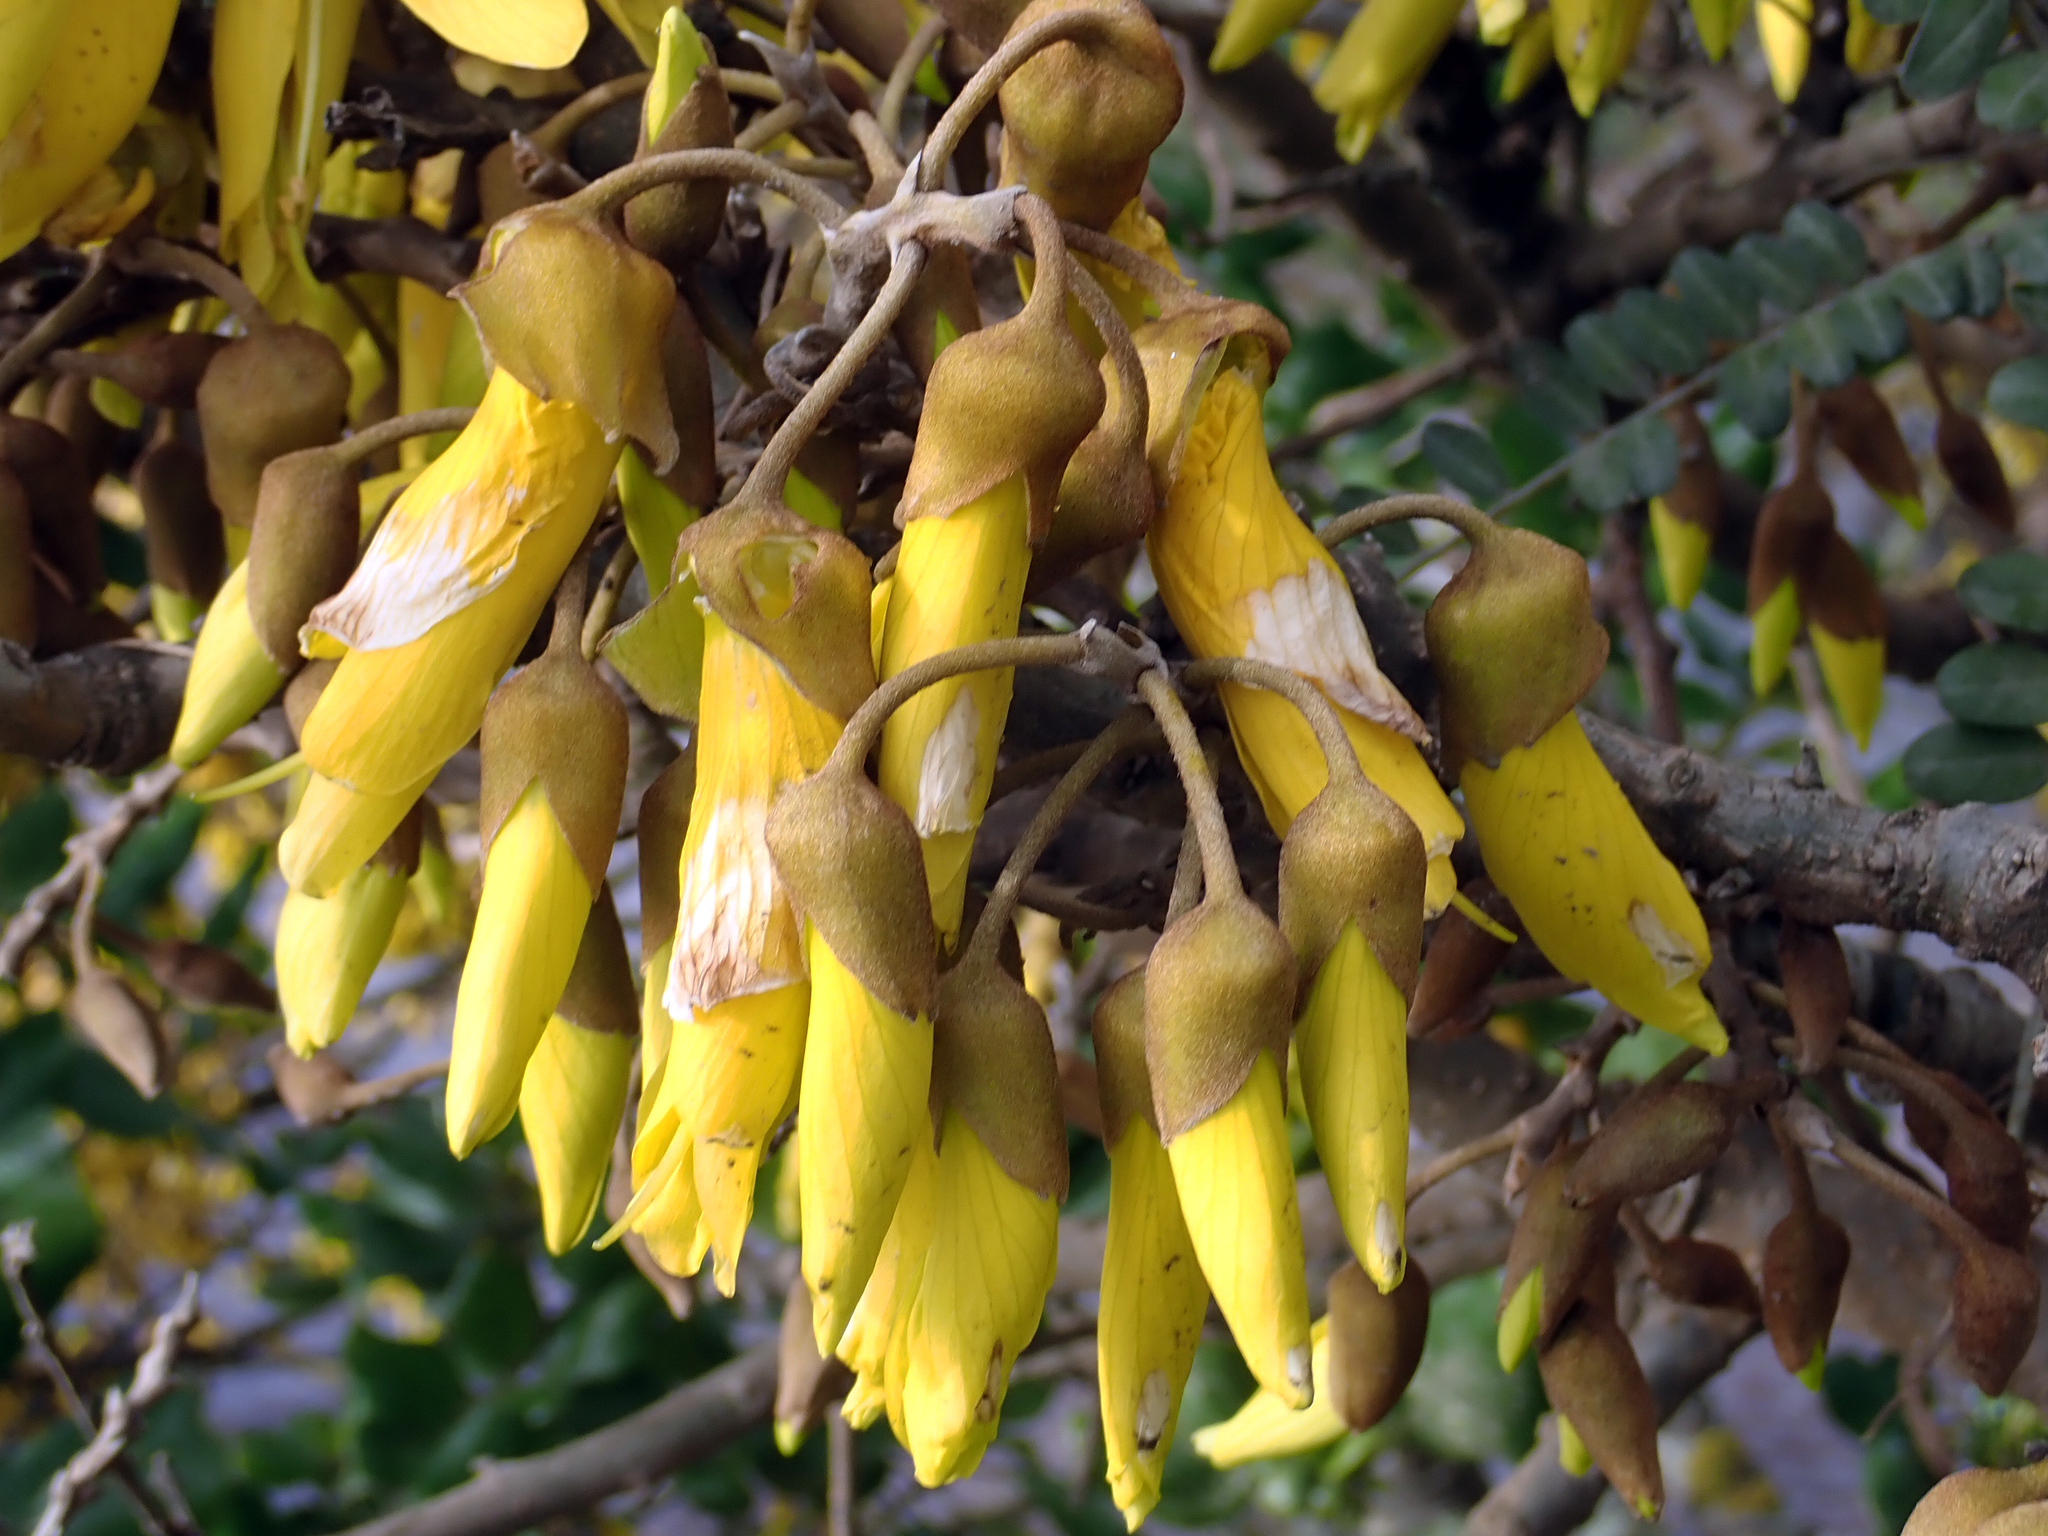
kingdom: Plantae
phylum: Tracheophyta
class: Magnoliopsida
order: Fabales
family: Fabaceae
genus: Sophora
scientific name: Sophora chathamica
